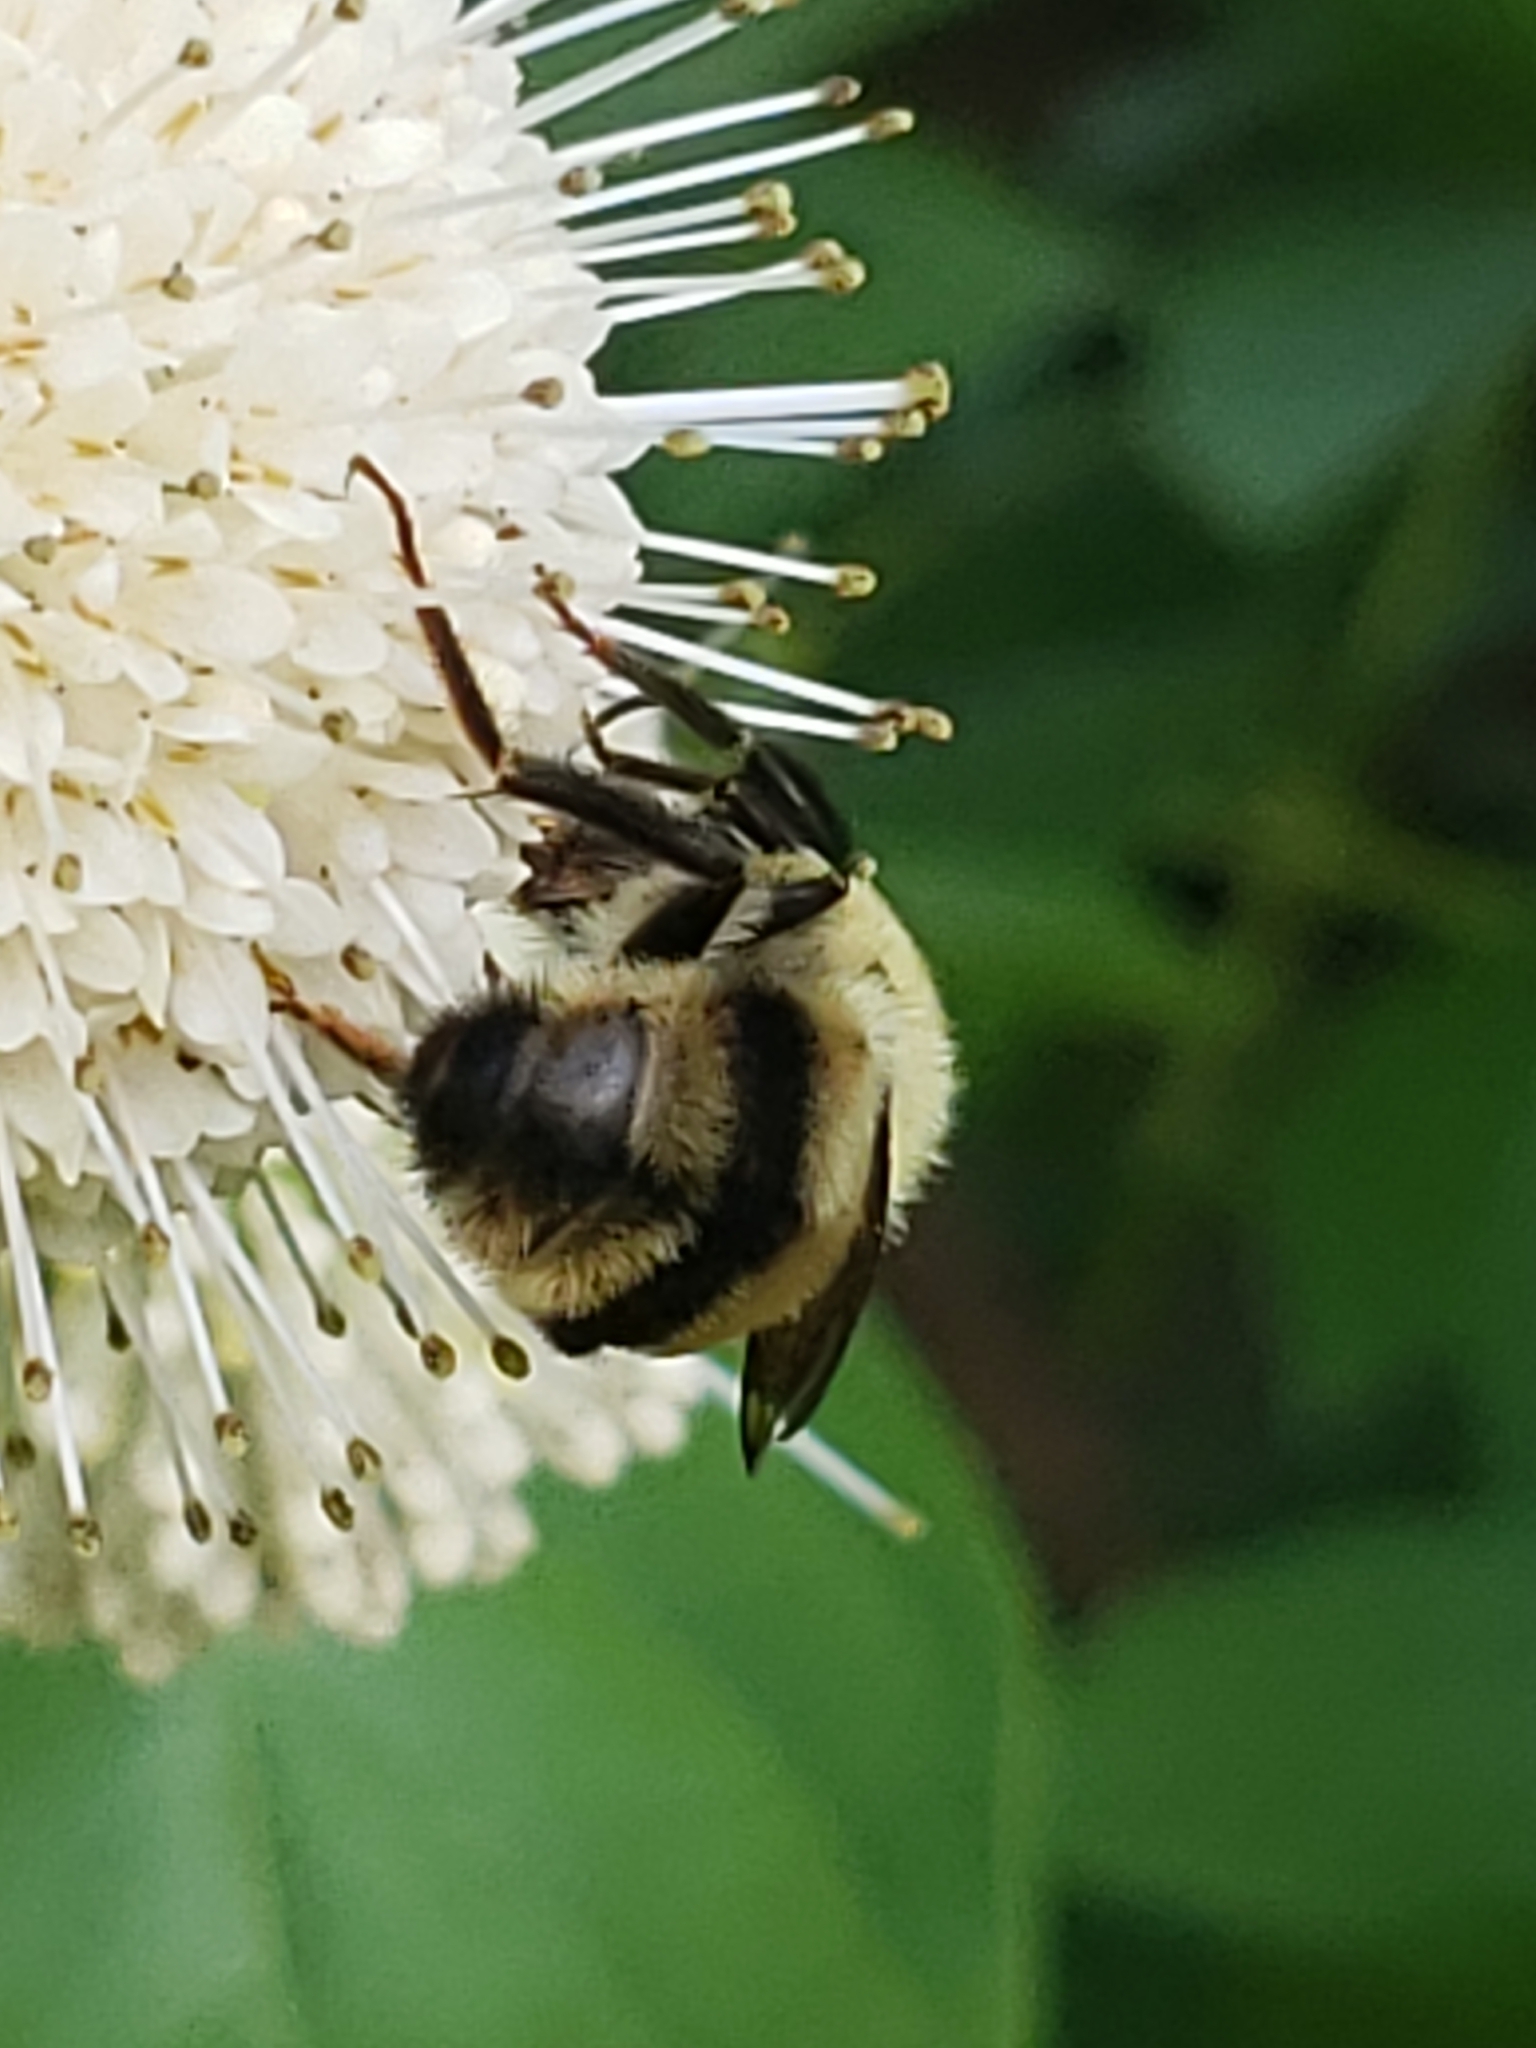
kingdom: Animalia
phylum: Arthropoda
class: Insecta
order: Hymenoptera
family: Apidae
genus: Bombus
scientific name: Bombus bimaculatus
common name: Two-spotted bumble bee
